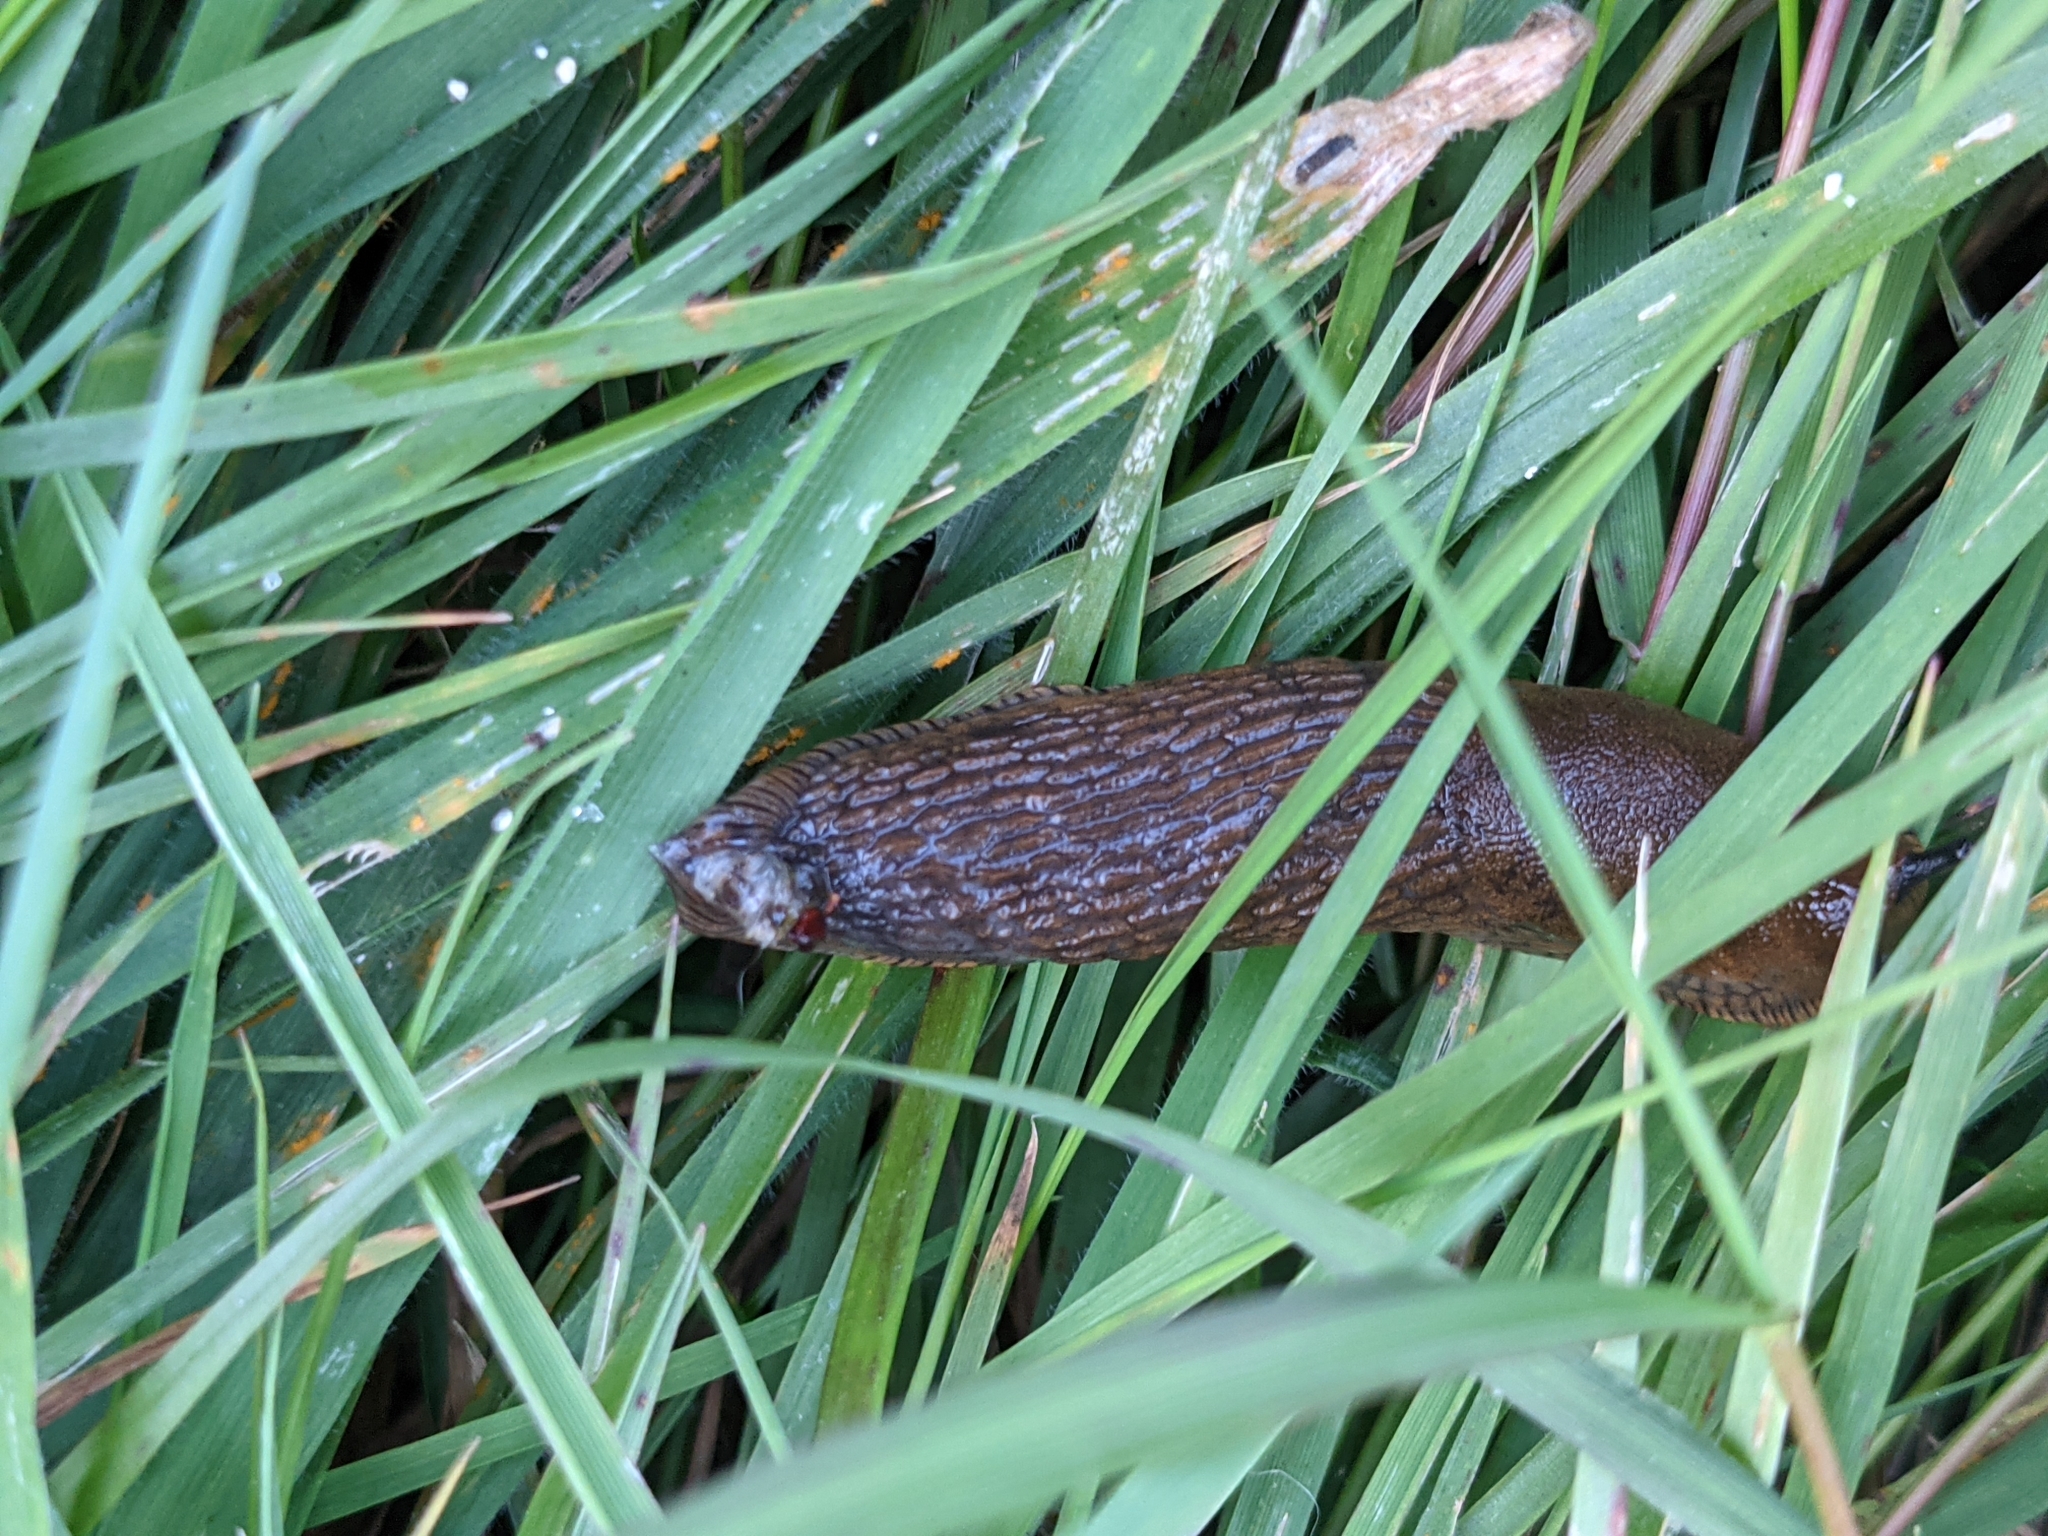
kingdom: Animalia
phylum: Mollusca
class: Gastropoda
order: Stylommatophora
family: Arionidae
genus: Arion
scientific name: Arion
